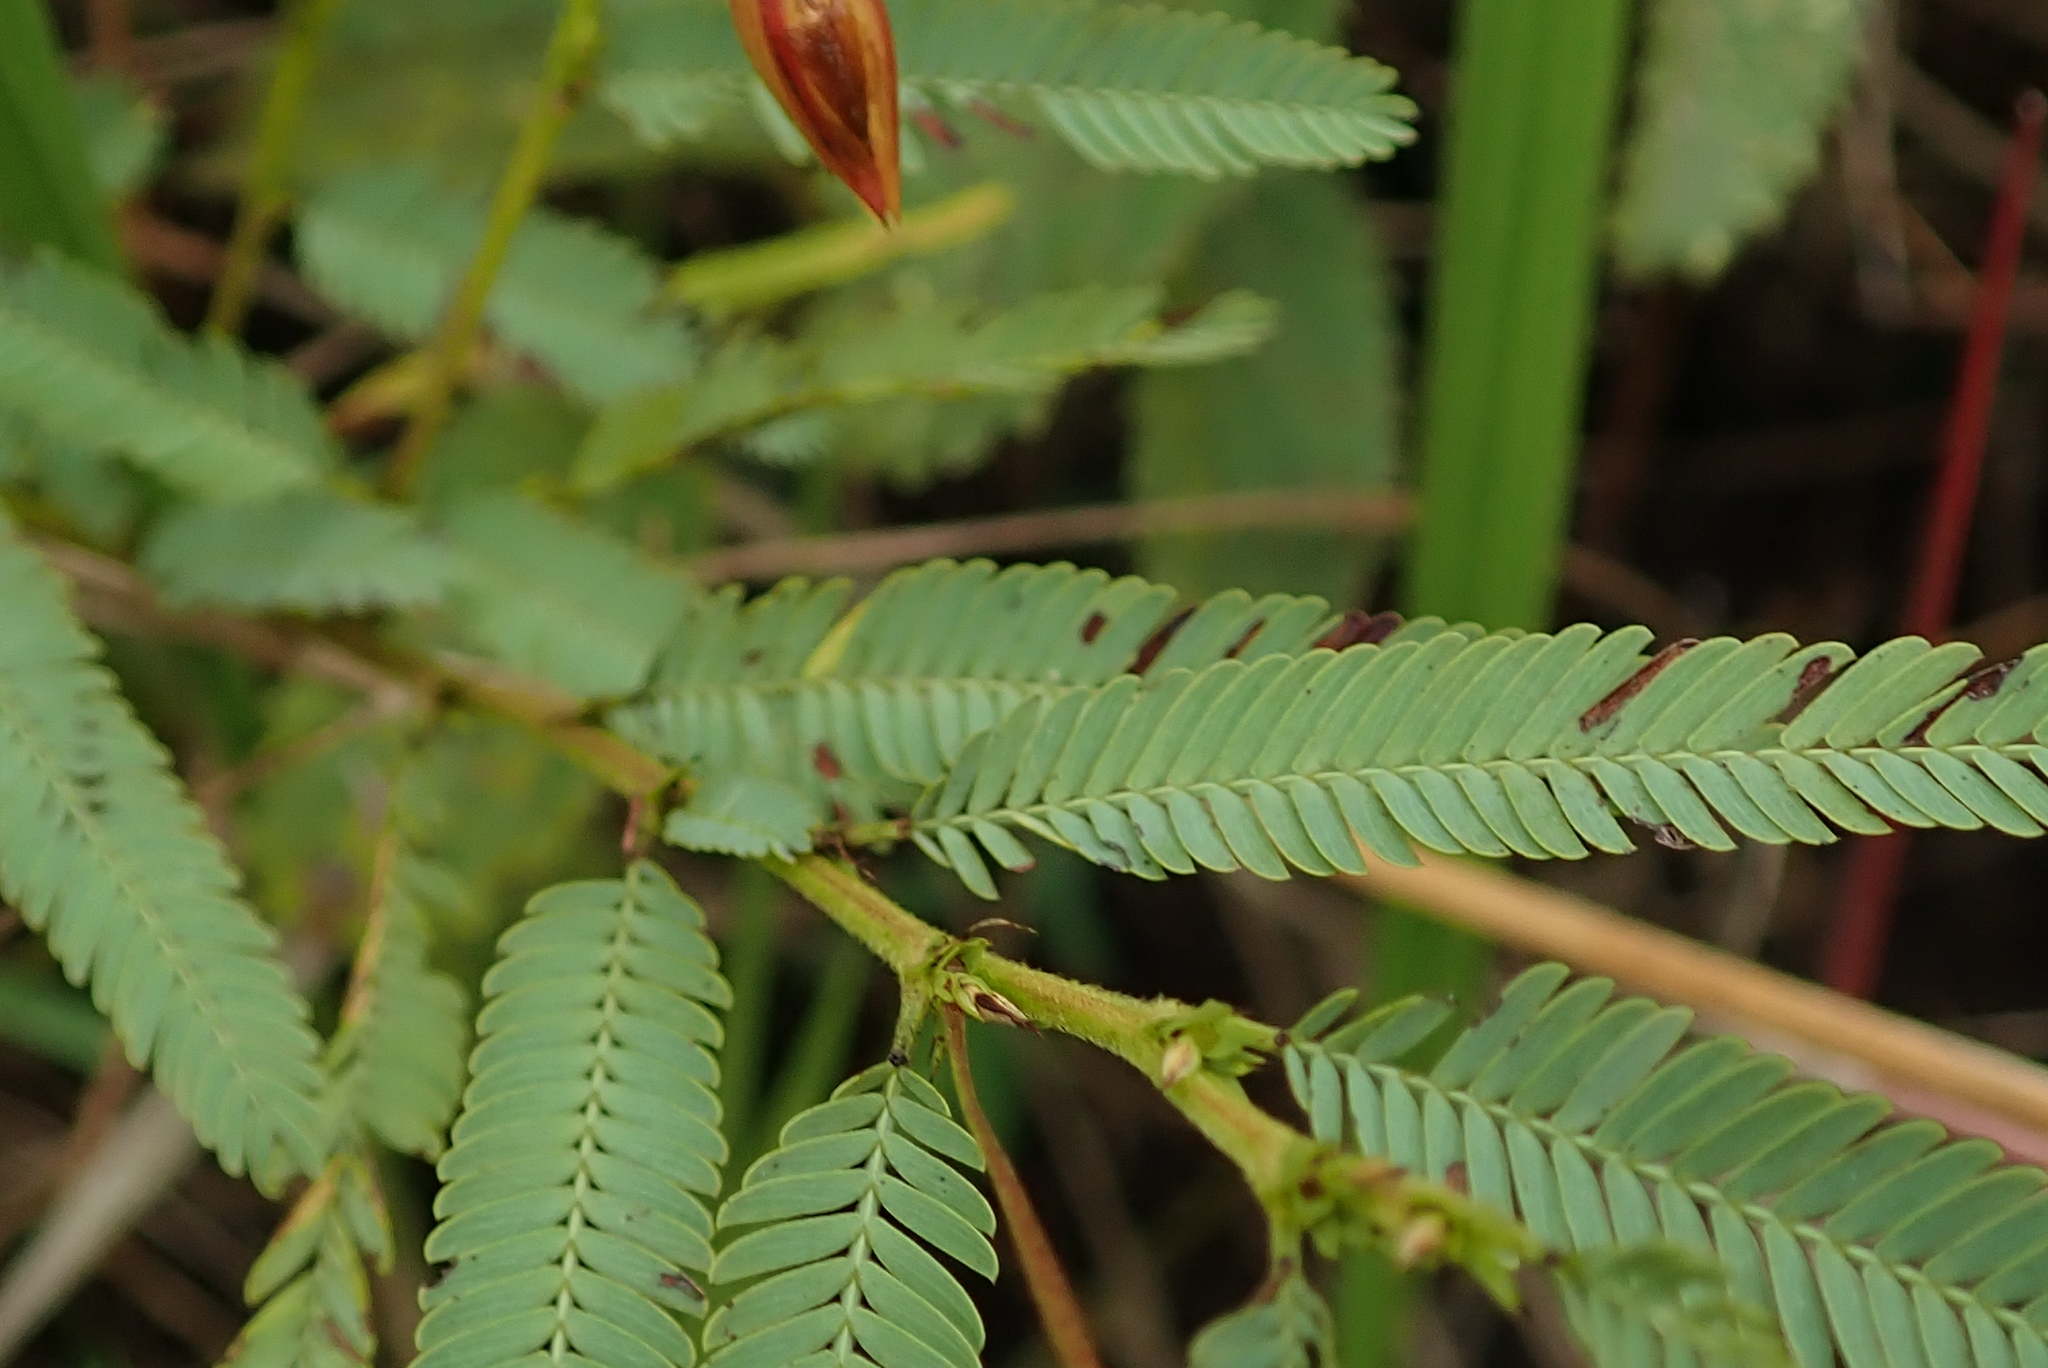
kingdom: Plantae
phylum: Tracheophyta
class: Magnoliopsida
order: Fabales
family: Fabaceae
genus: Chamaecrista
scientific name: Chamaecrista comosa
